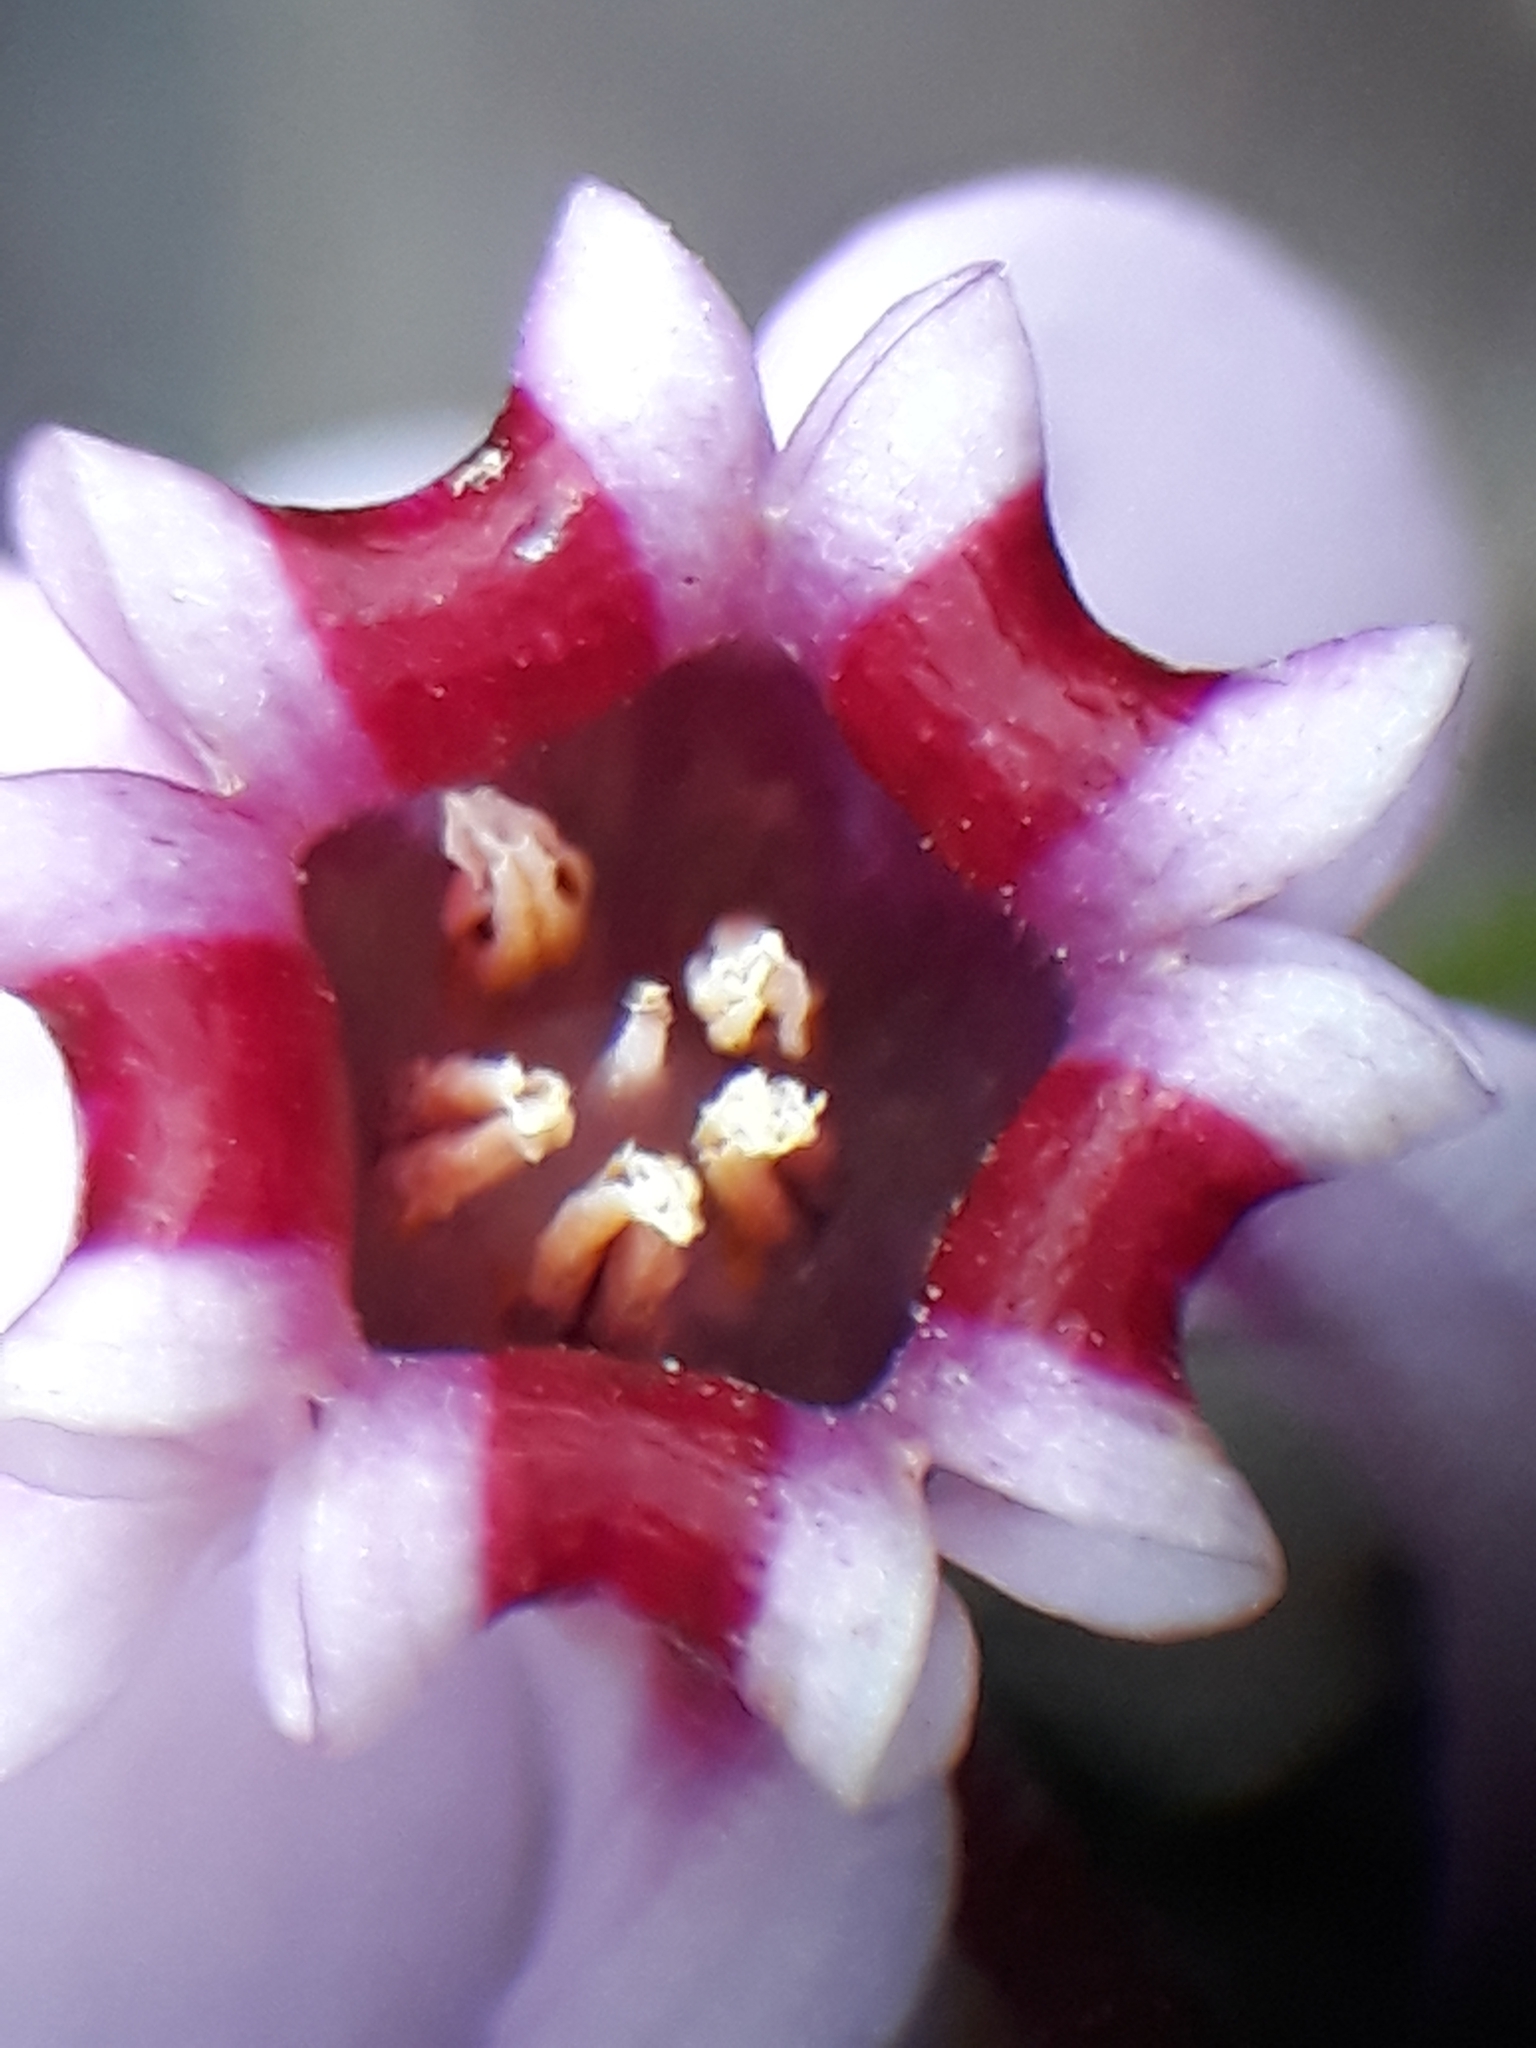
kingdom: Plantae
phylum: Tracheophyta
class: Magnoliopsida
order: Ericales
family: Primulaceae
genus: Cyclamen
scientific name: Cyclamen africanum
